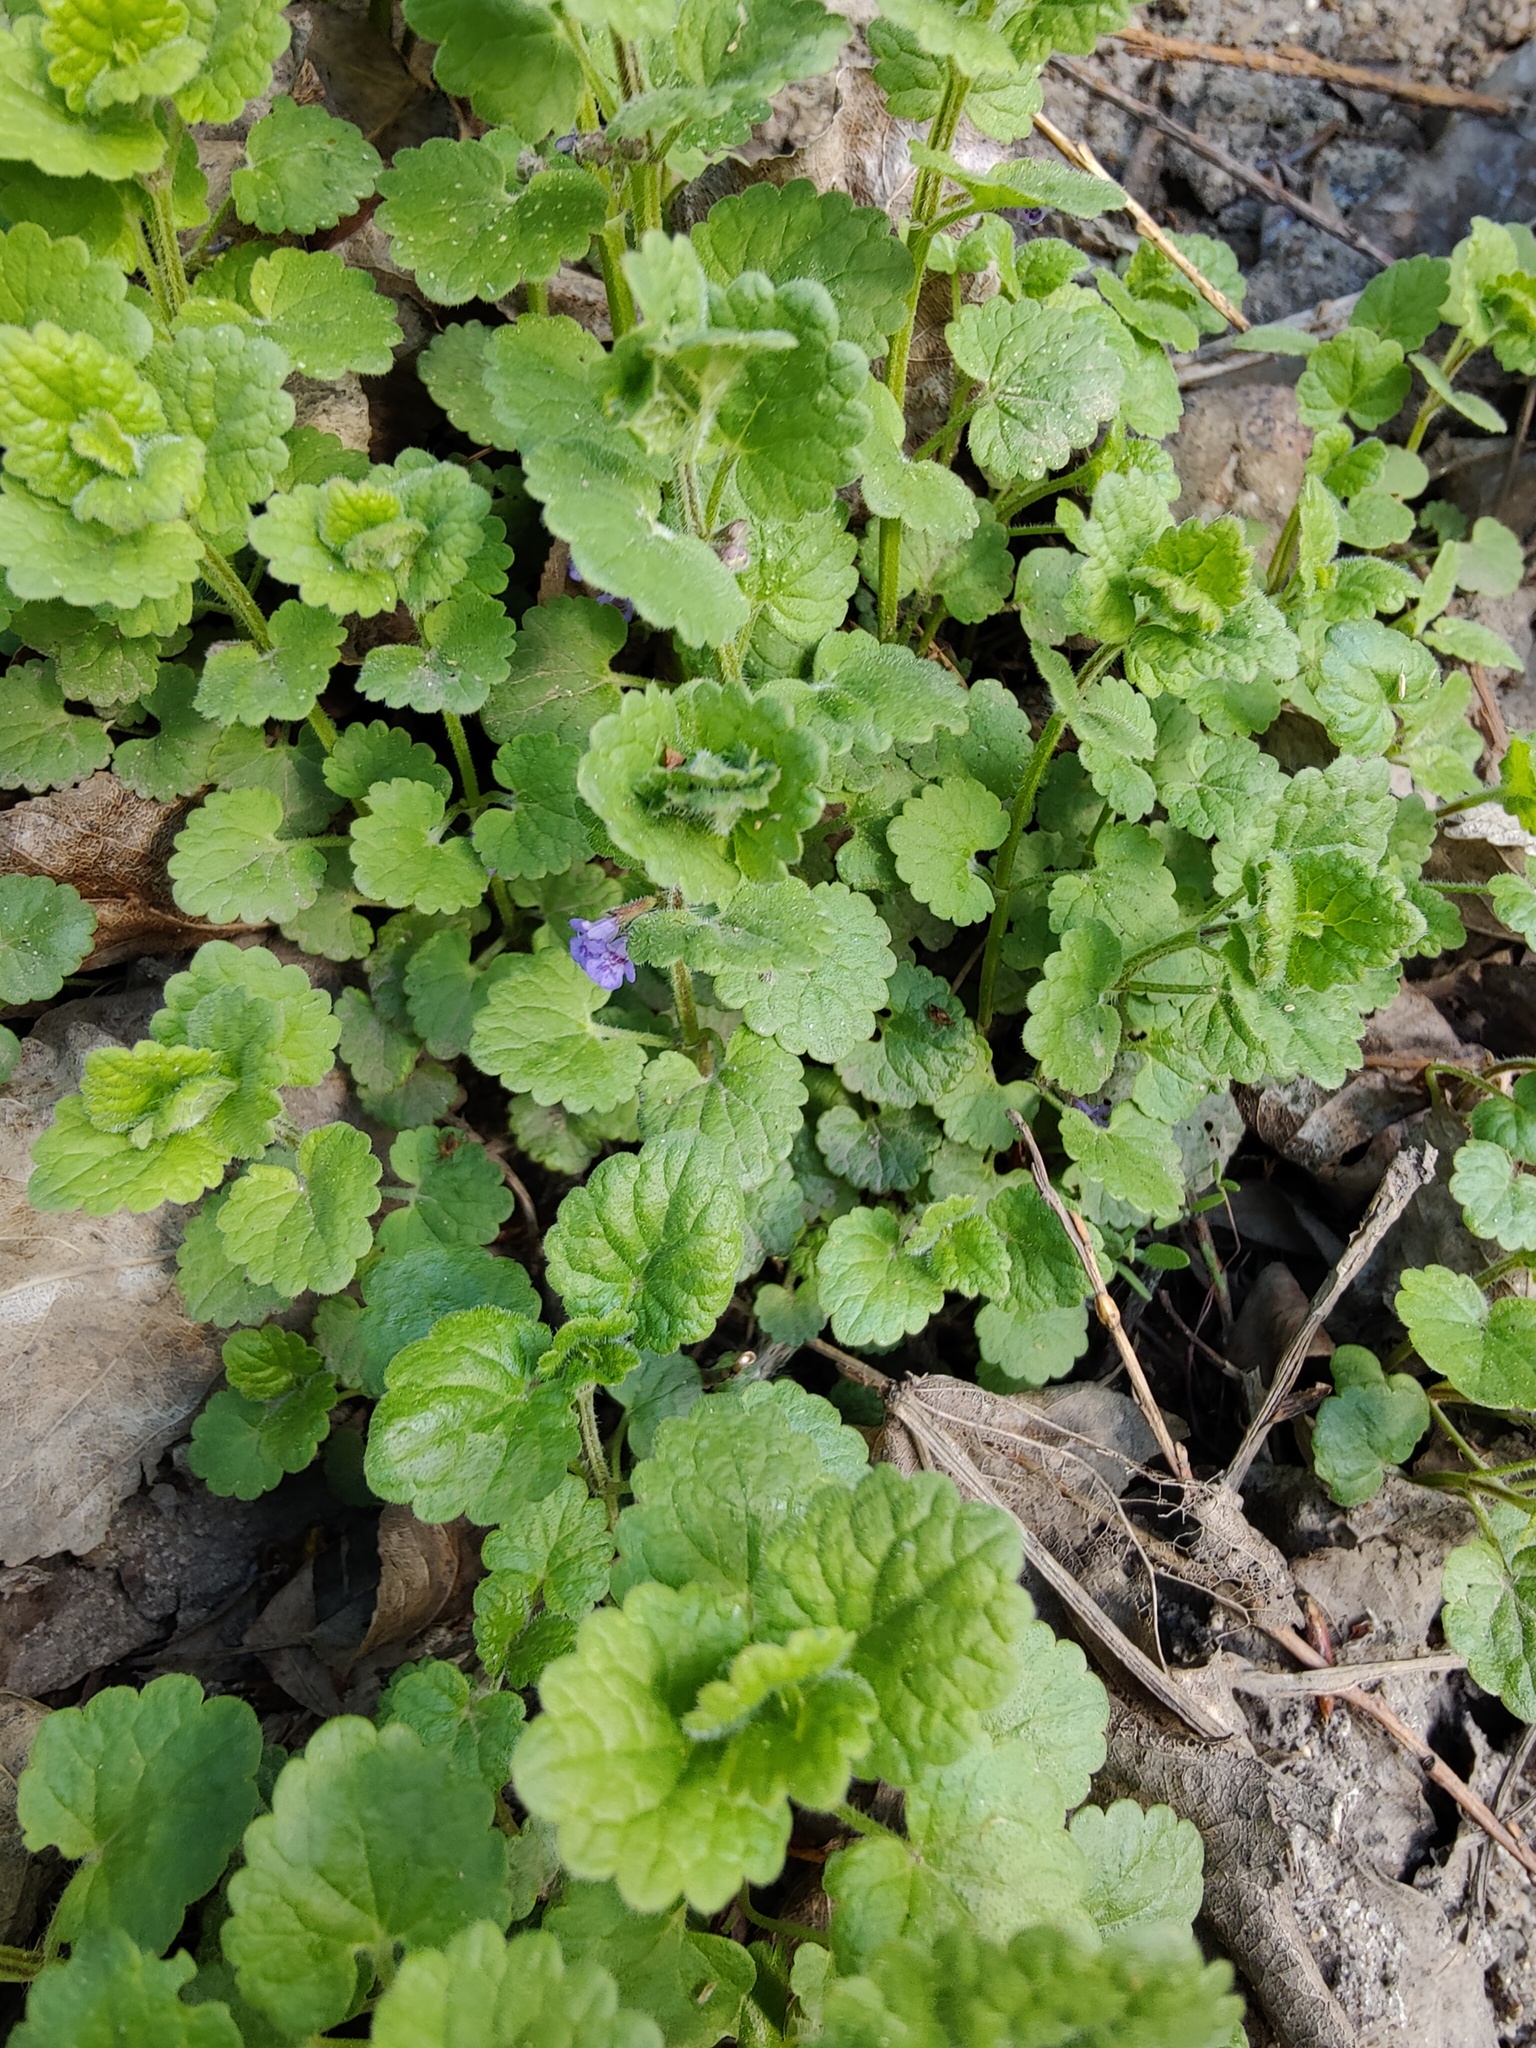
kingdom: Plantae
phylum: Tracheophyta
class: Magnoliopsida
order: Lamiales
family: Lamiaceae
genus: Glechoma
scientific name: Glechoma hederacea
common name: Ground ivy
